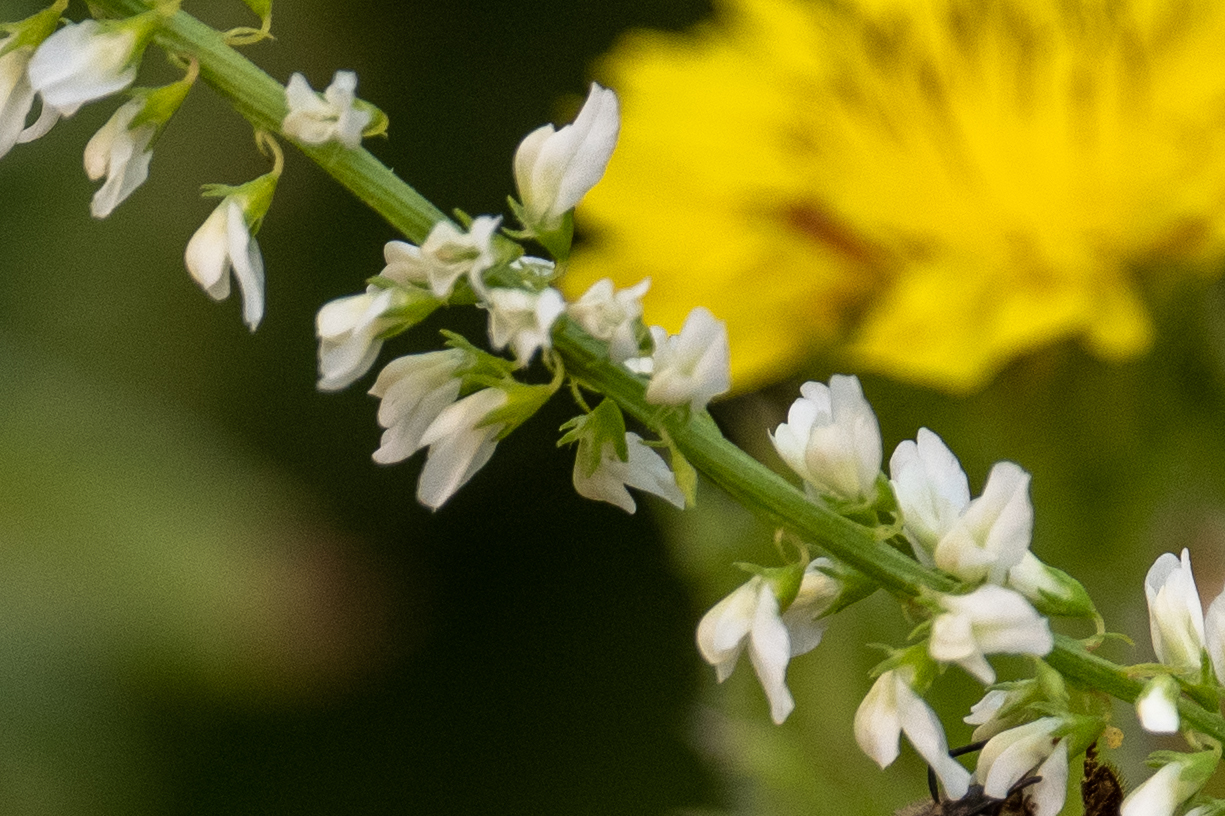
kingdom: Plantae
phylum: Tracheophyta
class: Magnoliopsida
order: Fabales
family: Fabaceae
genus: Melilotus
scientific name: Melilotus albus
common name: White melilot
